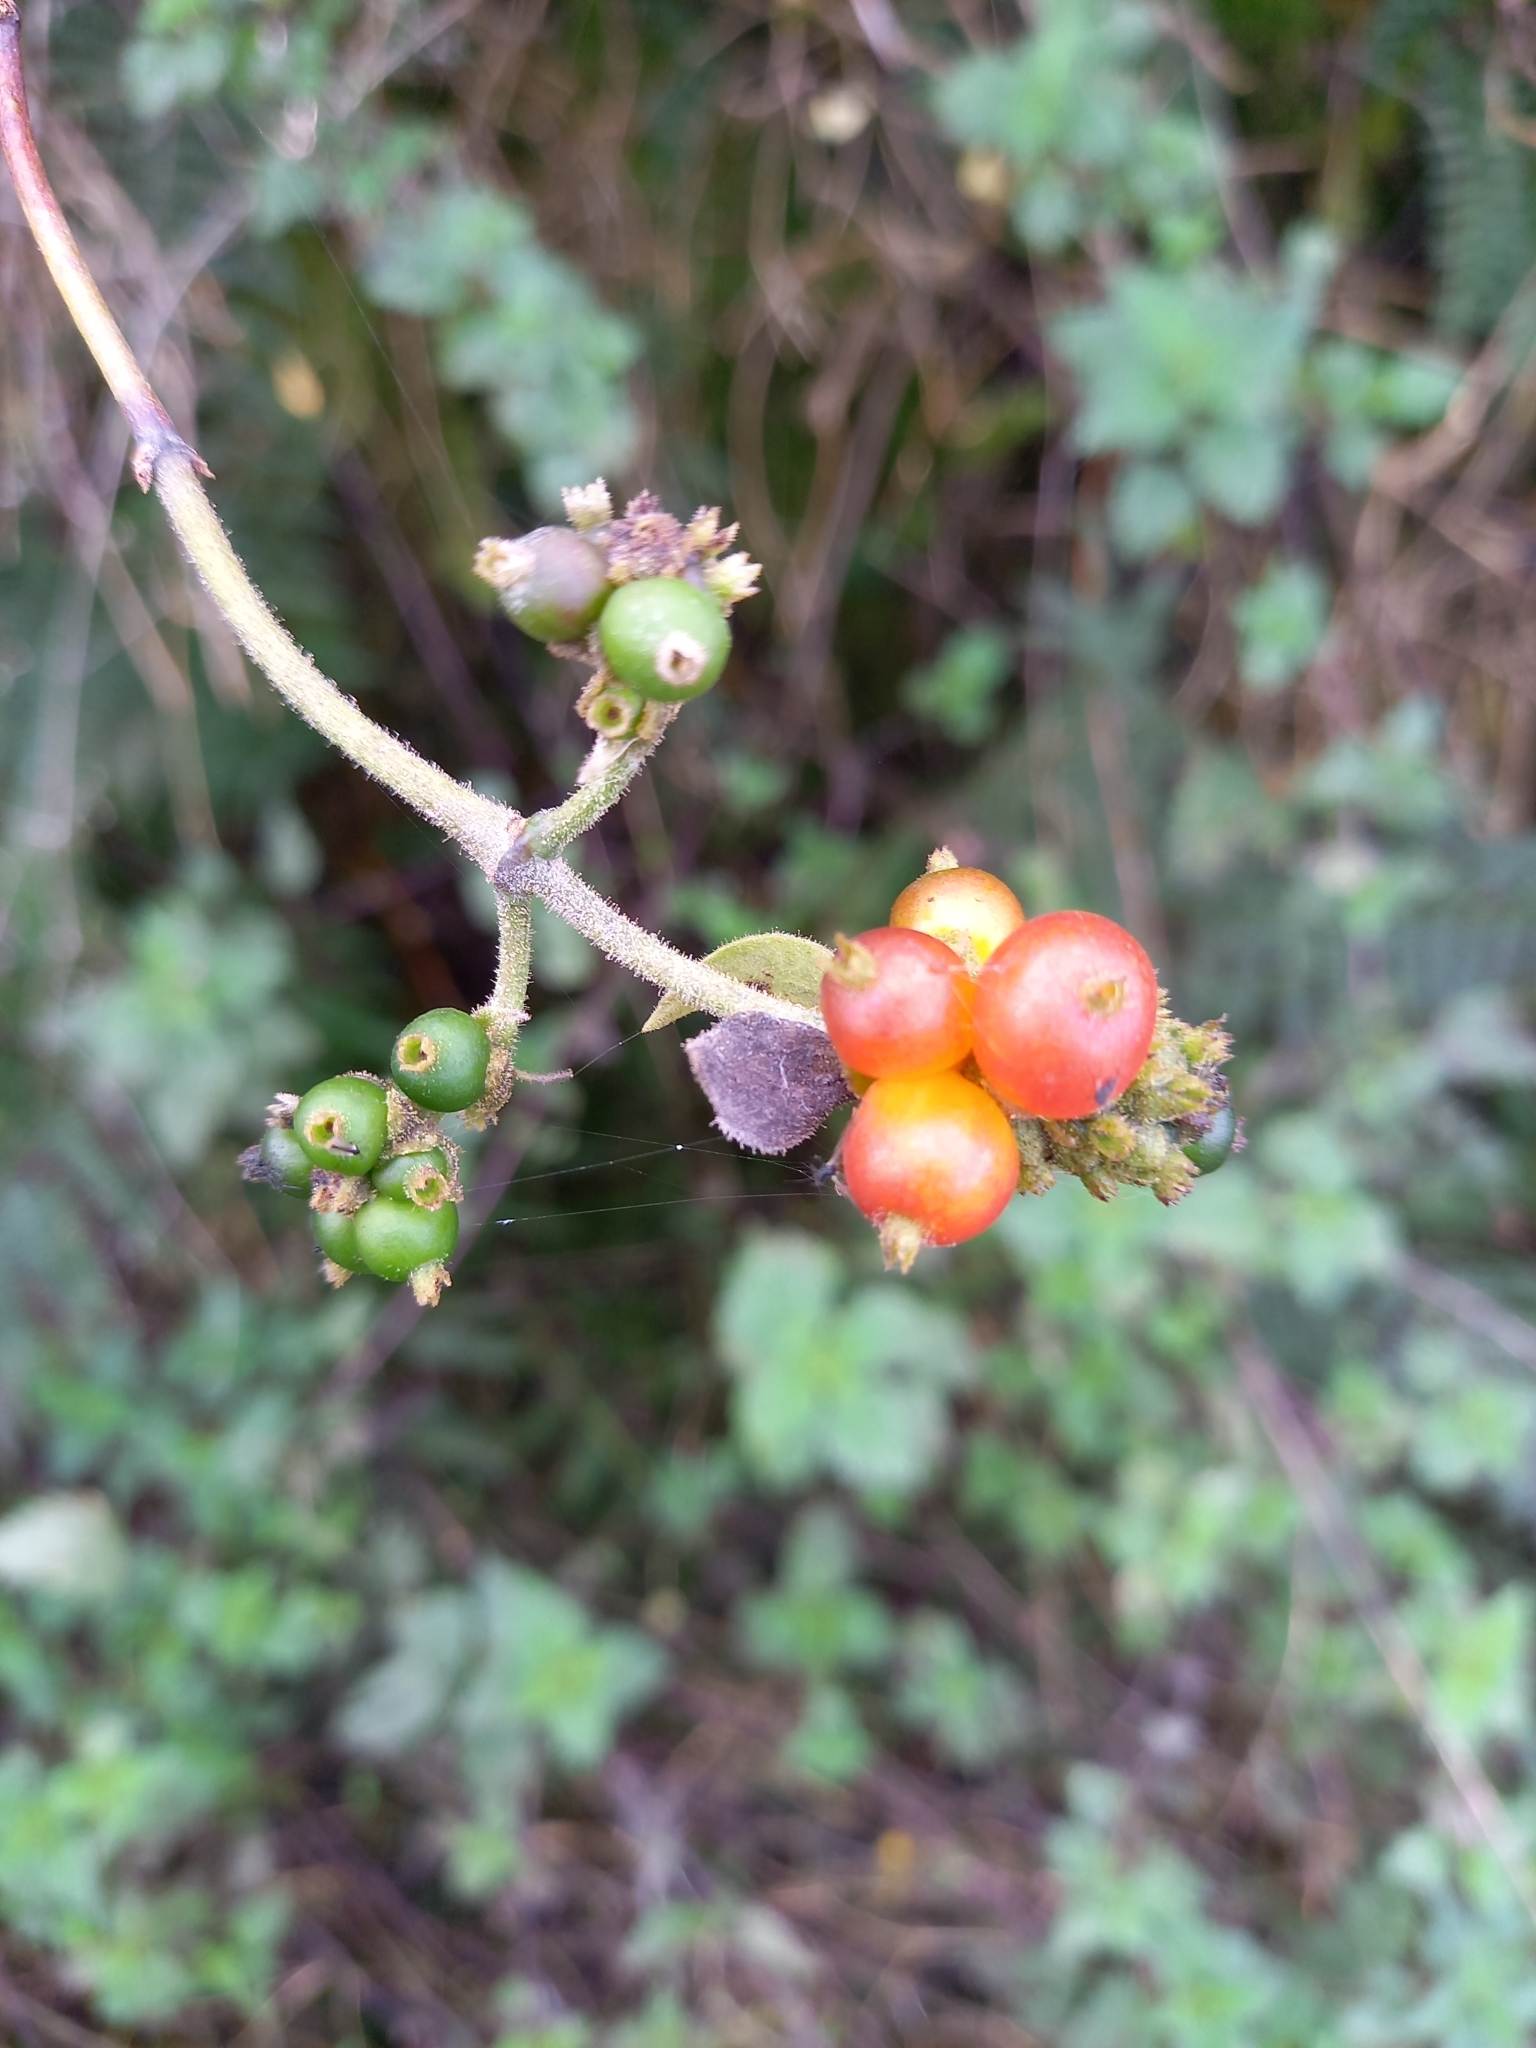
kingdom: Plantae
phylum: Tracheophyta
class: Magnoliopsida
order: Dipsacales
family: Caprifoliaceae
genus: Lonicera
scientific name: Lonicera periclymenum
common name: European honeysuckle
